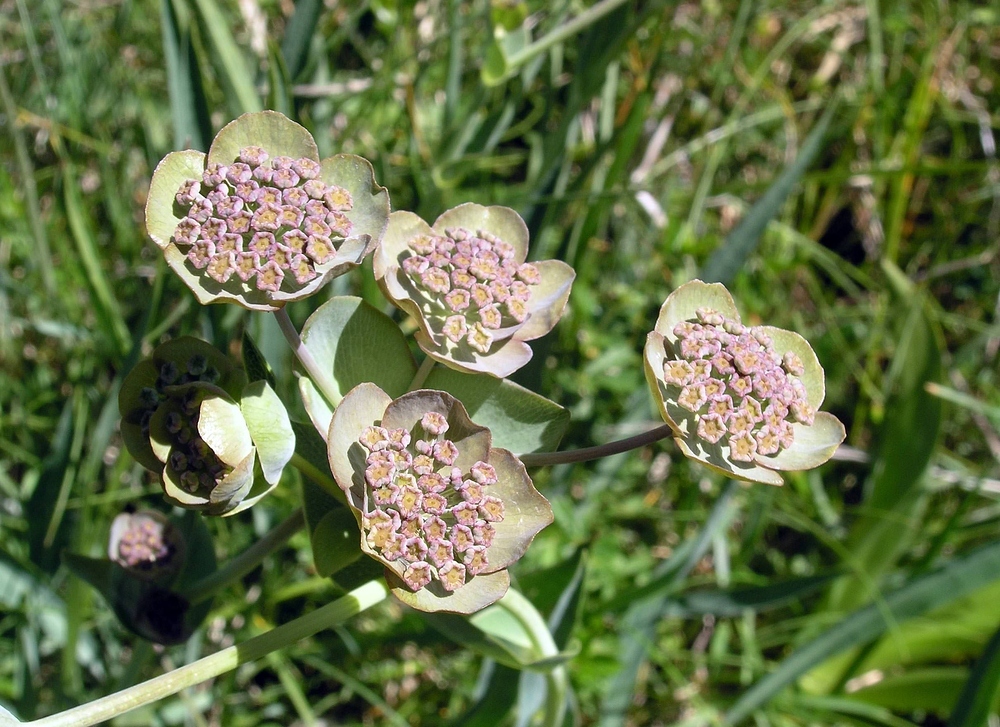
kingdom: Plantae
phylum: Tracheophyta
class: Magnoliopsida
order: Apiales
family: Apiaceae
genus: Bupleurum
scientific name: Bupleurum angulosum
